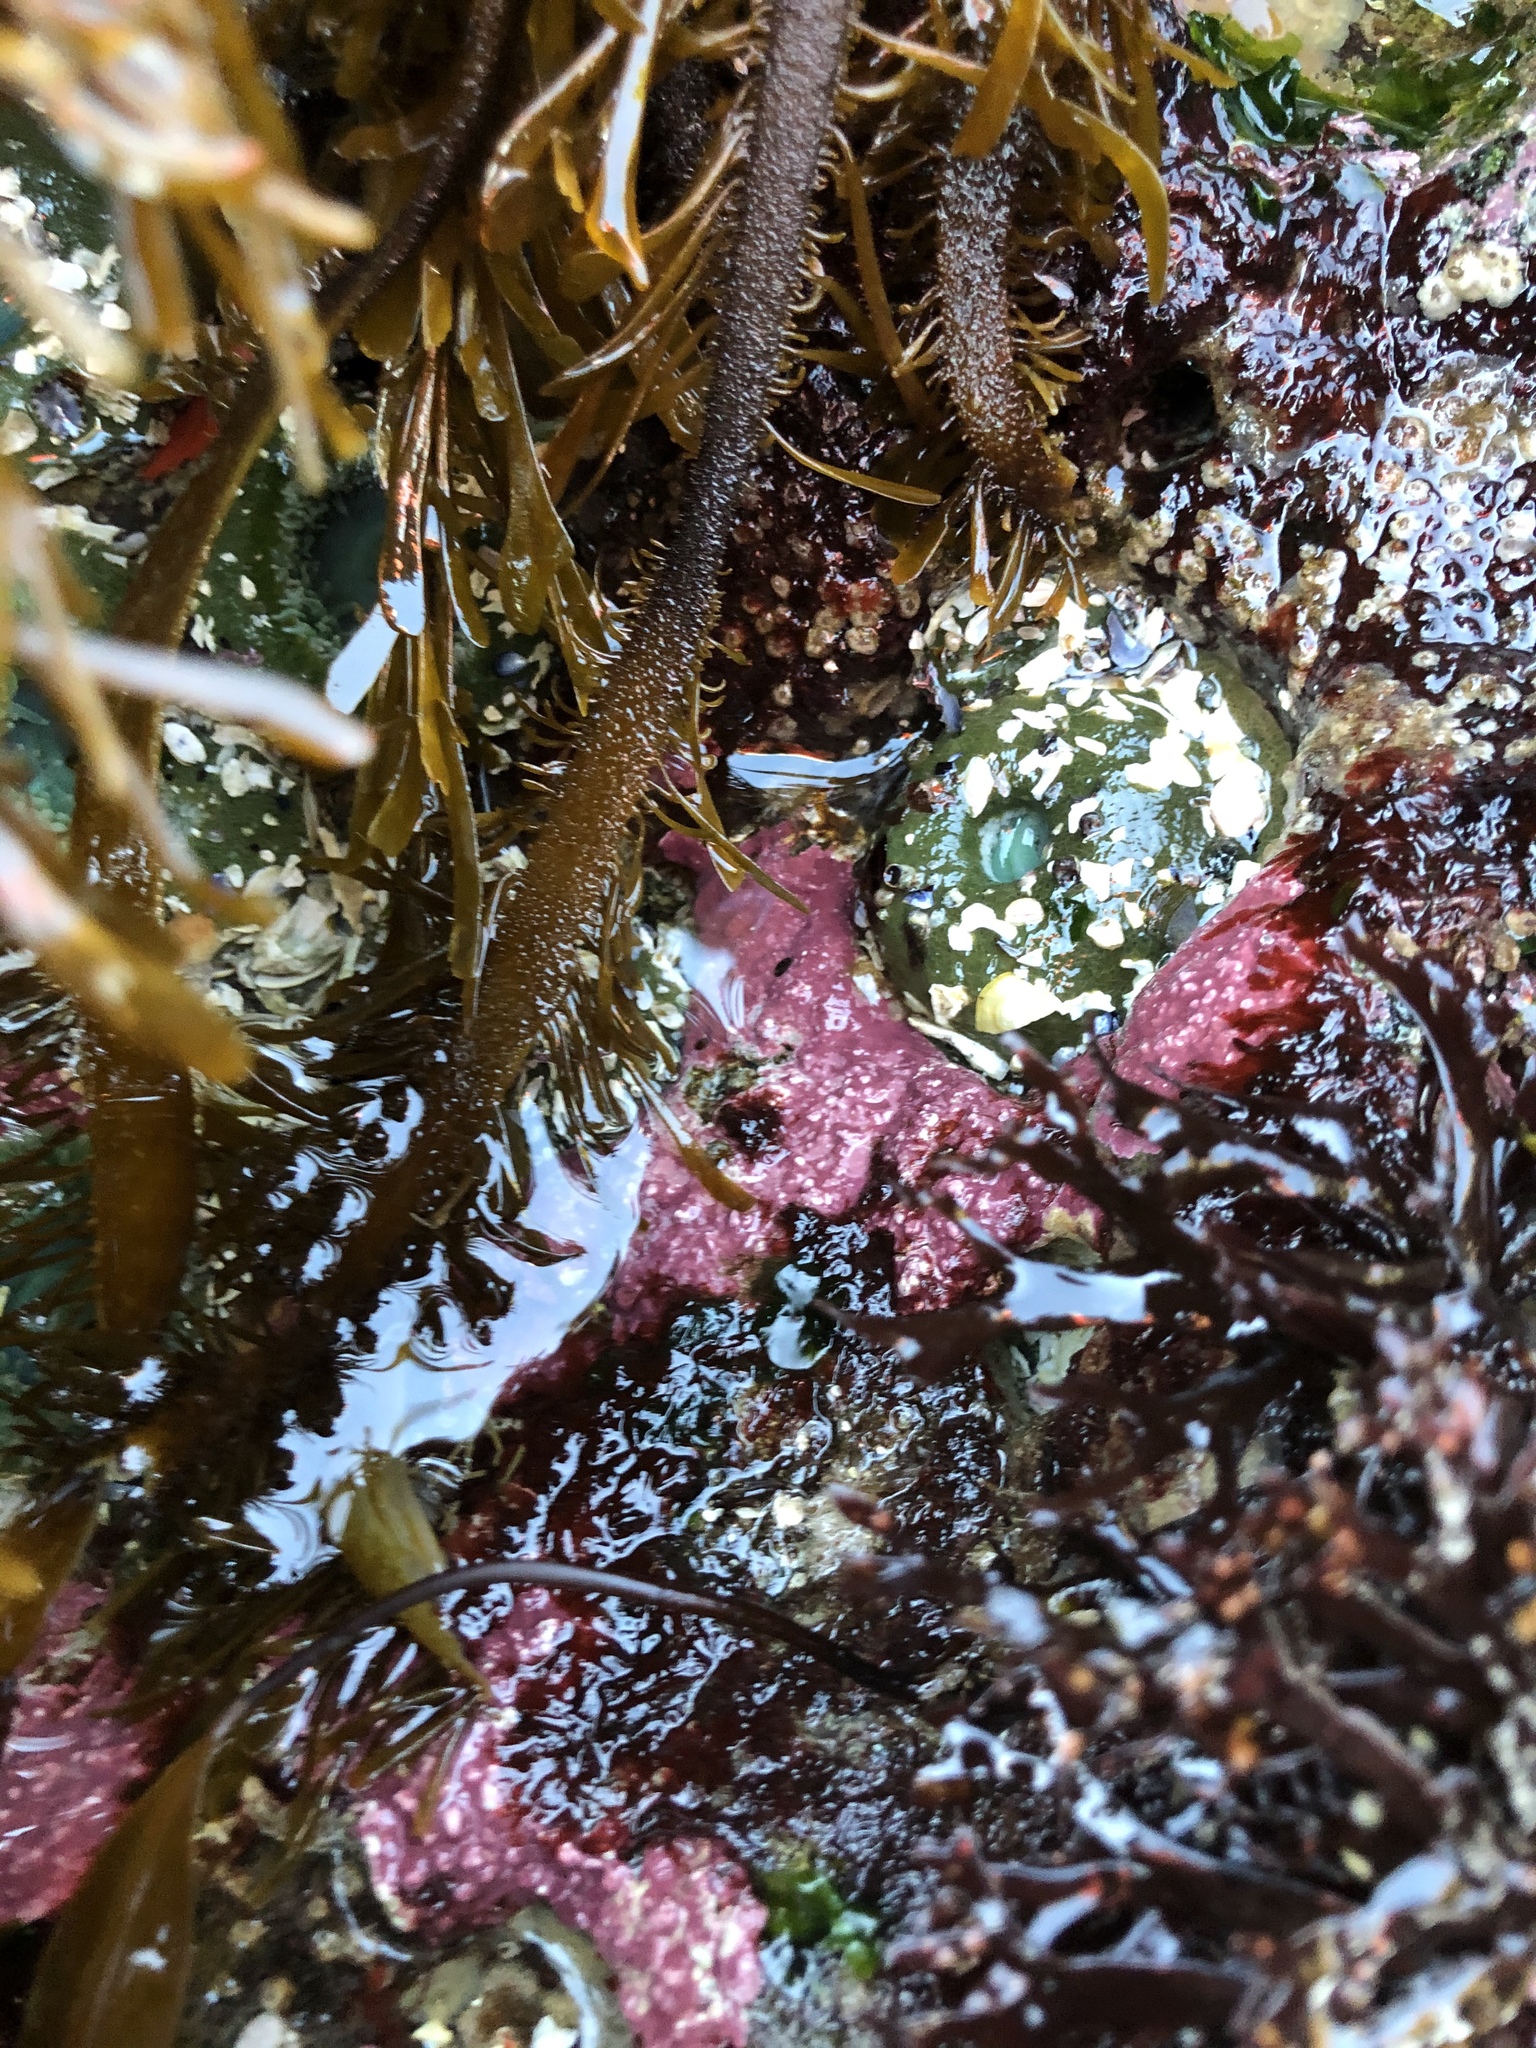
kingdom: Animalia
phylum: Cnidaria
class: Anthozoa
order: Actiniaria
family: Actiniidae
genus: Anthopleura
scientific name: Anthopleura xanthogrammica
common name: Giant green anemone
